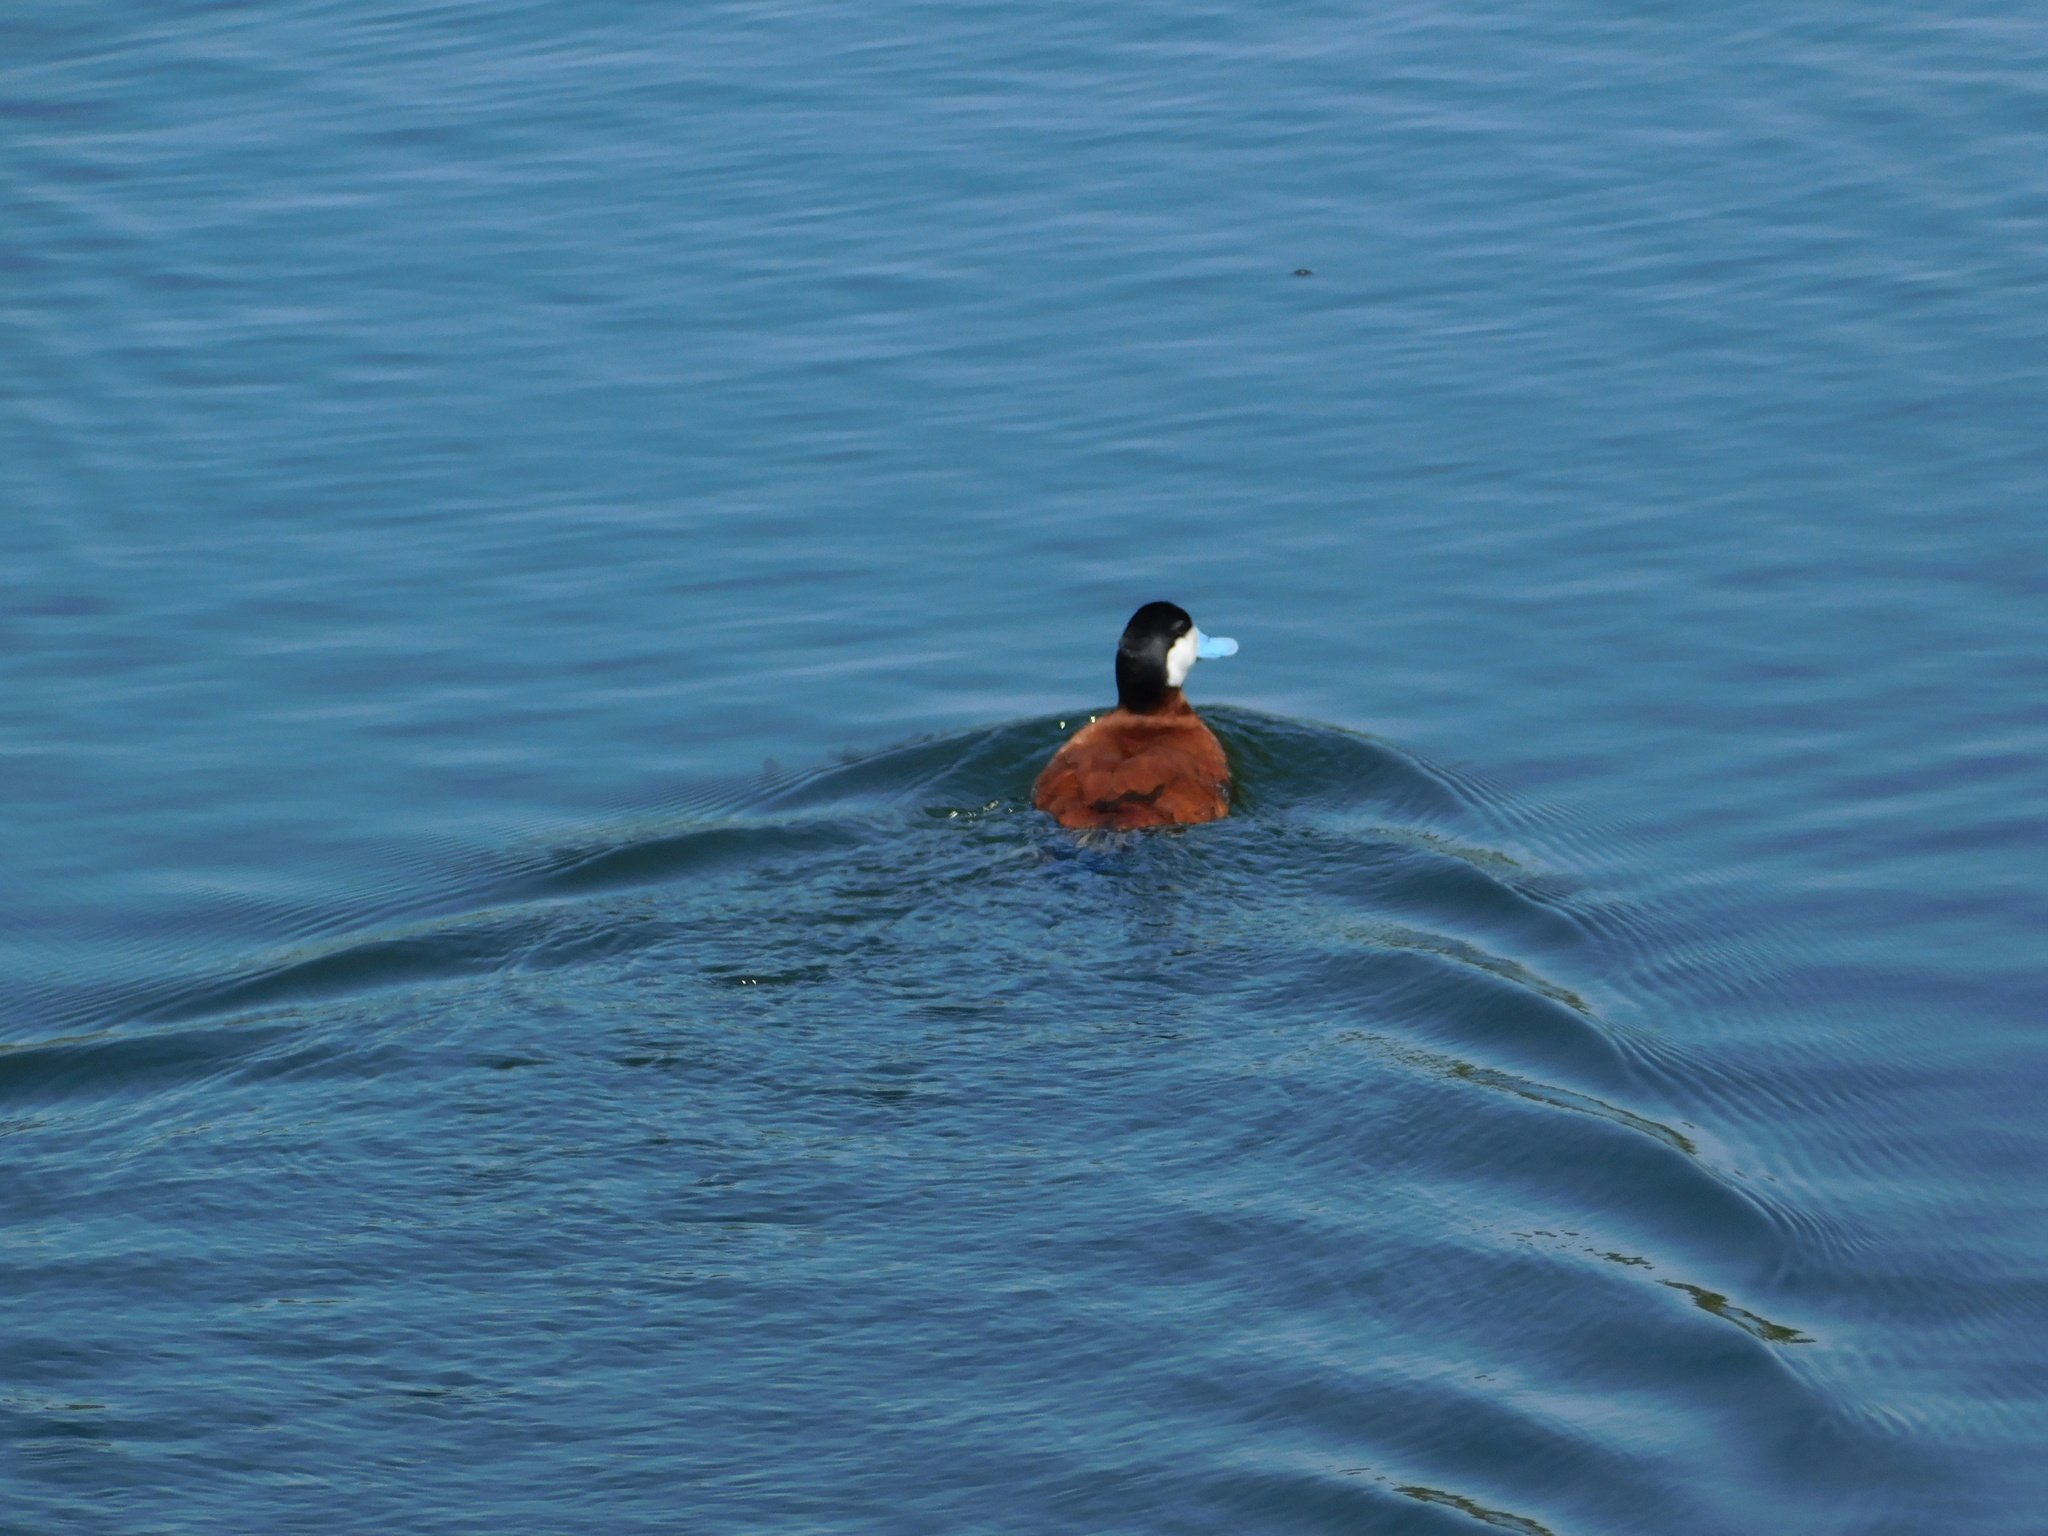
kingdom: Animalia
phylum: Chordata
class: Aves
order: Anseriformes
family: Anatidae
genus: Oxyura
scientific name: Oxyura jamaicensis
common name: Ruddy duck
